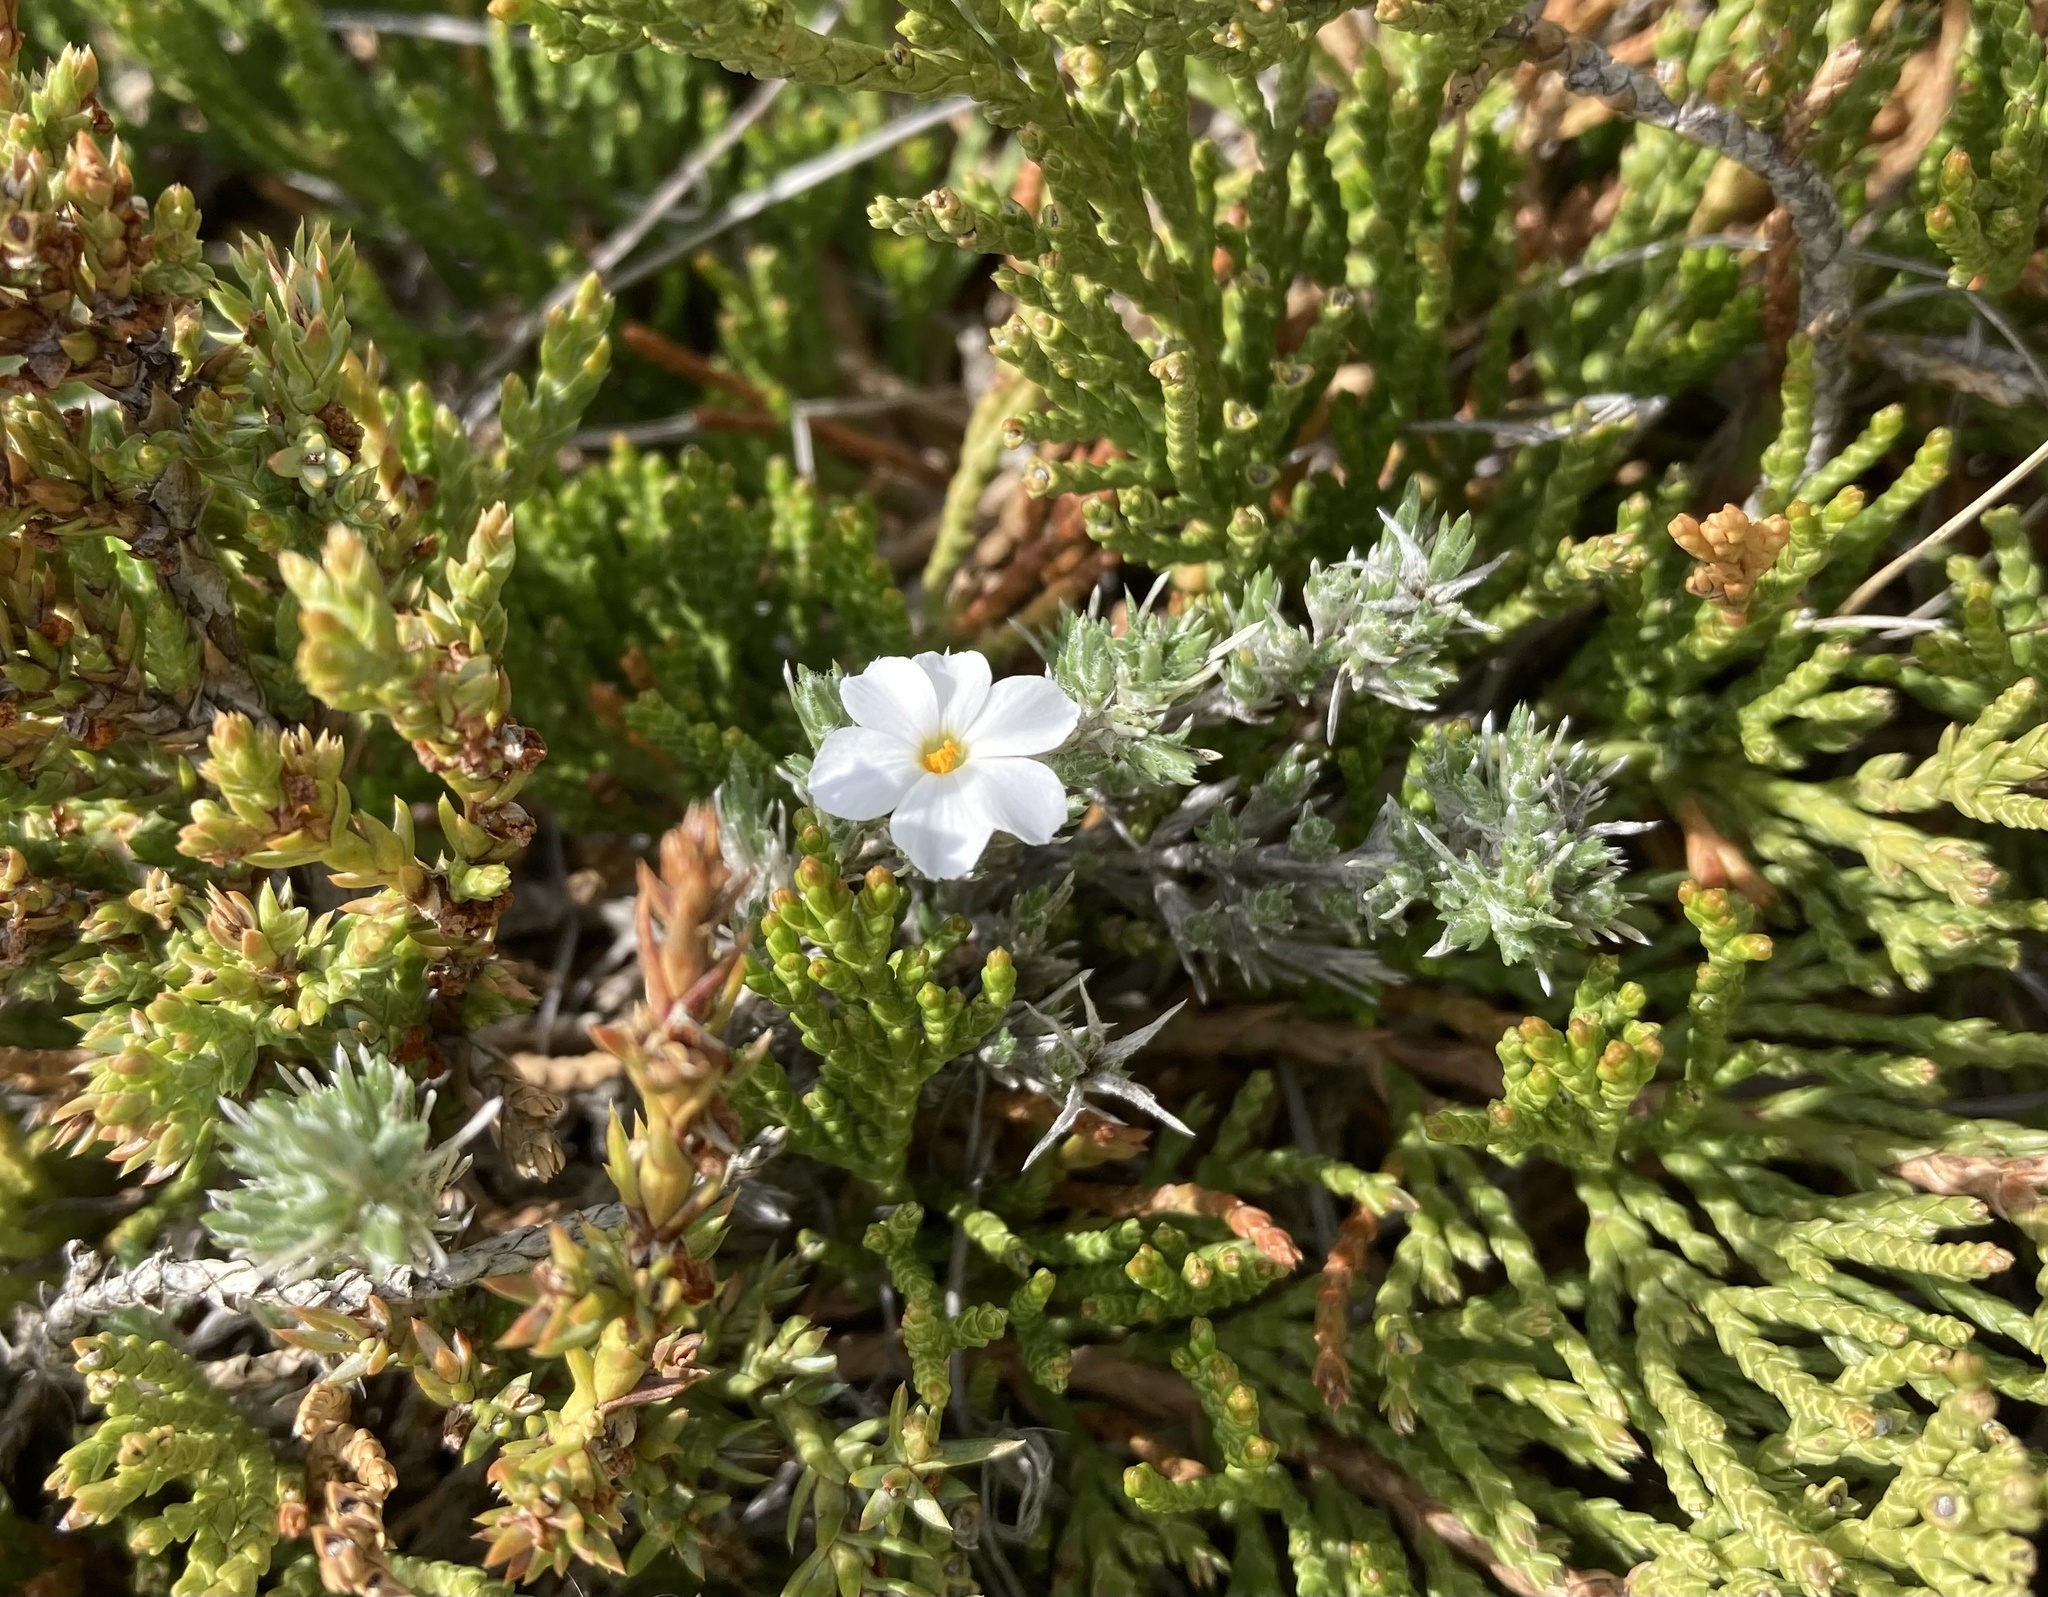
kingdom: Plantae
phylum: Tracheophyta
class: Magnoliopsida
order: Ericales
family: Polemoniaceae
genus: Phlox
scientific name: Phlox hoodii
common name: Moss phlox
